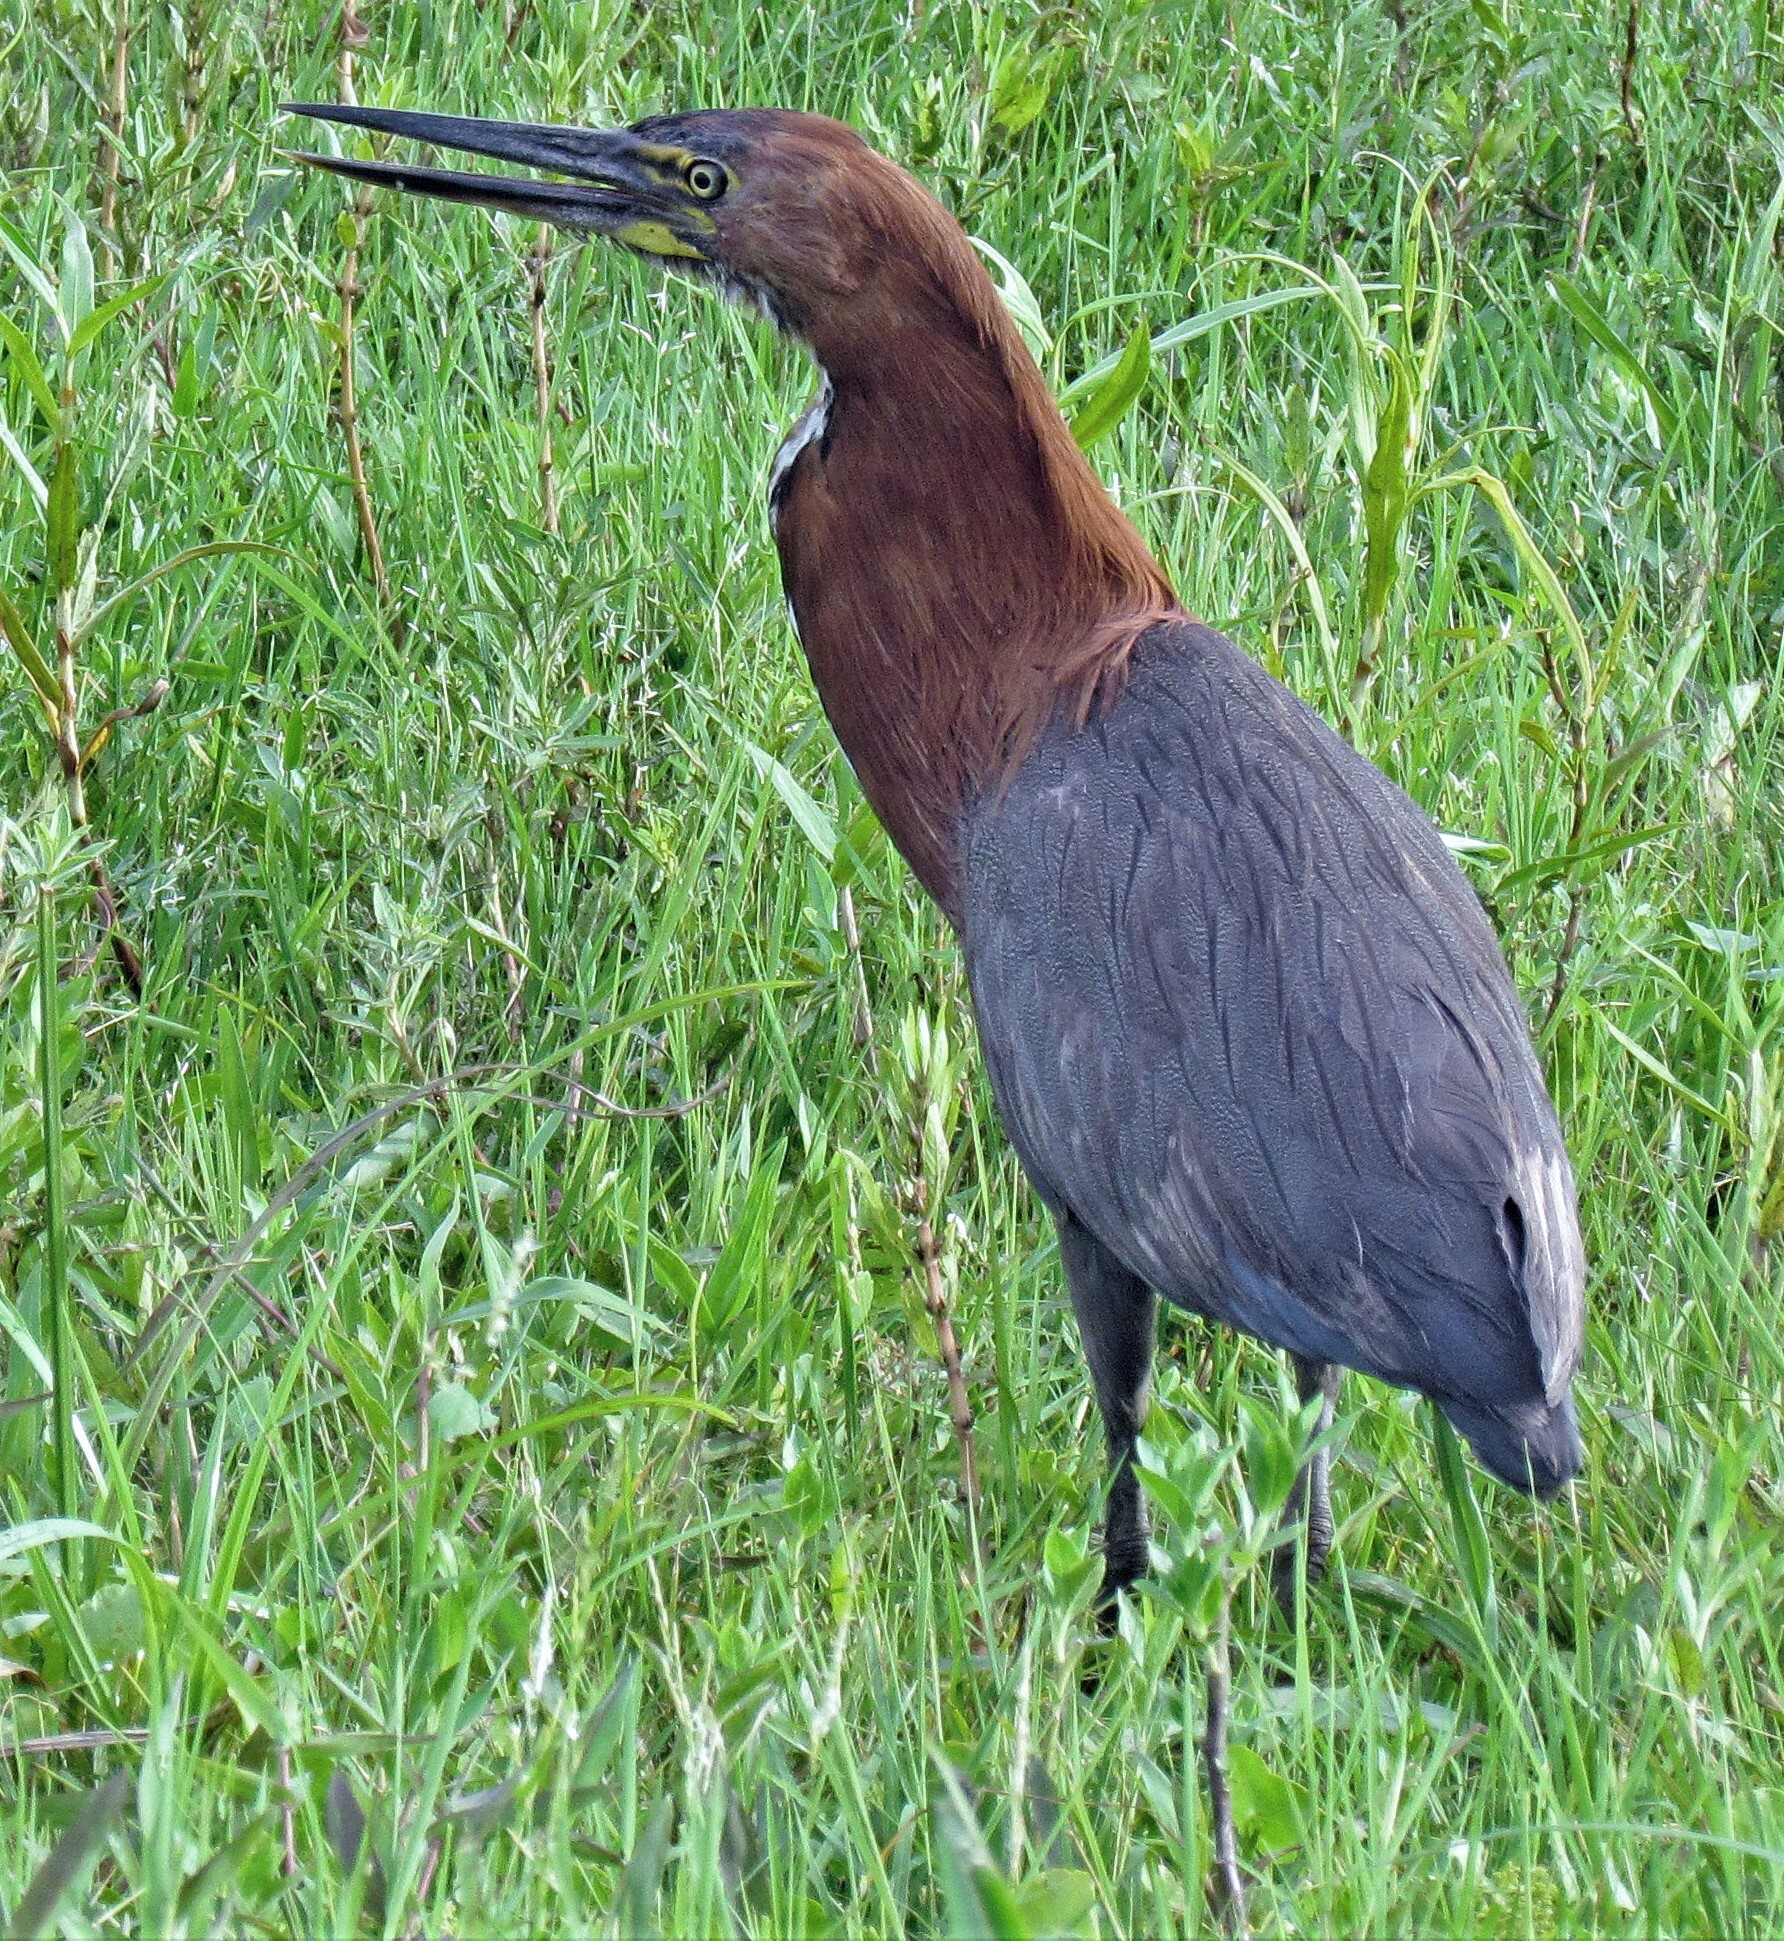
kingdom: Animalia
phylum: Chordata
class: Aves
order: Pelecaniformes
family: Ardeidae
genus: Tigrisoma
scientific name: Tigrisoma lineatum
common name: Rufescent tiger-heron
